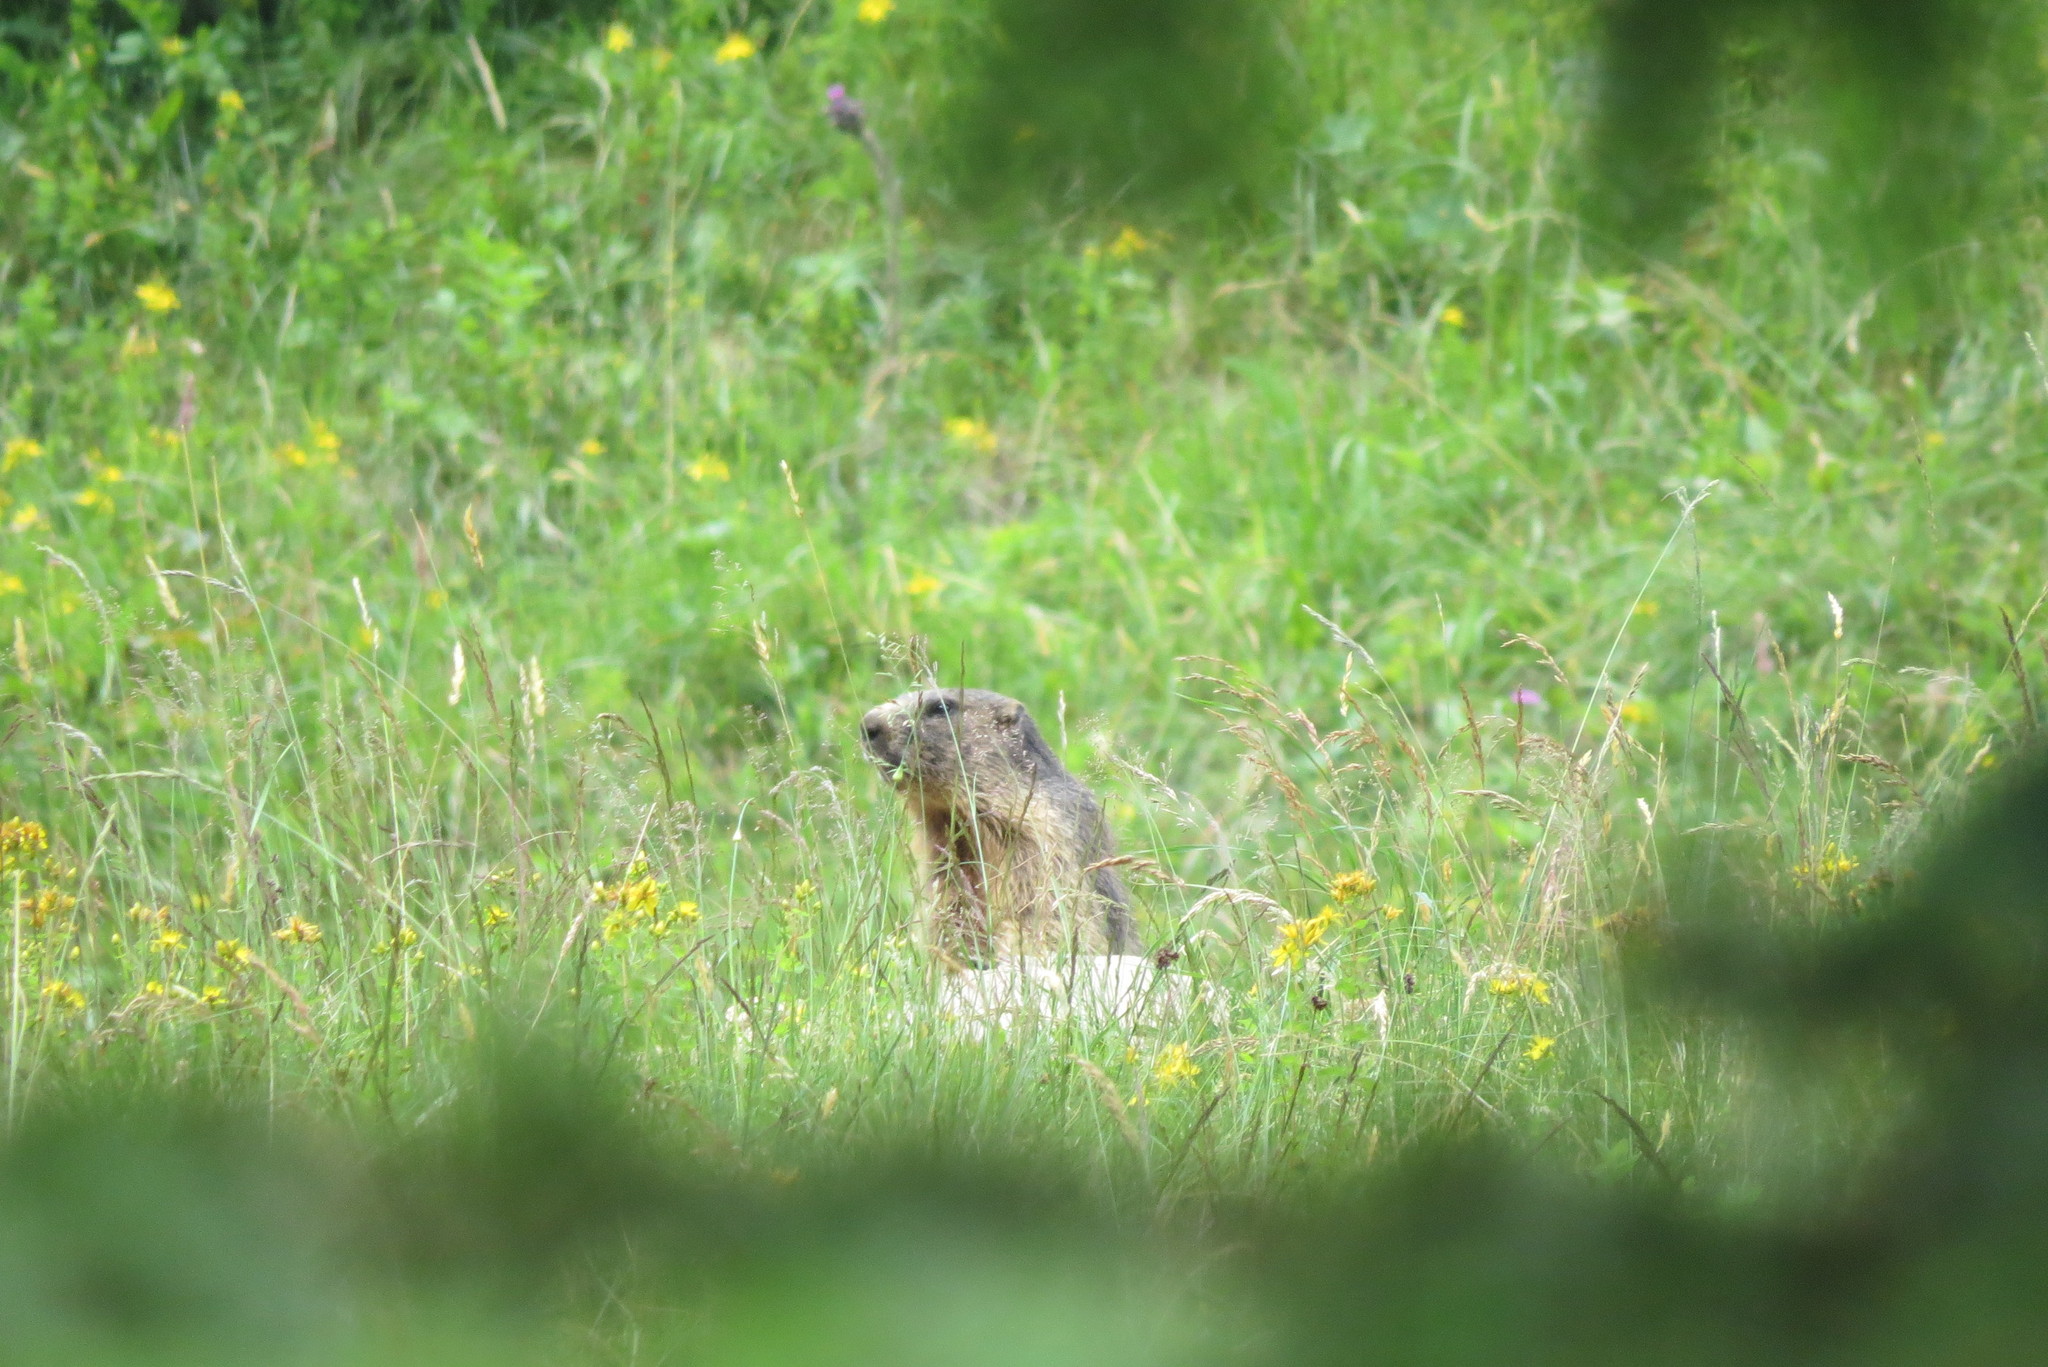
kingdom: Animalia
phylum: Chordata
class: Mammalia
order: Rodentia
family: Sciuridae
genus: Marmota
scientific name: Marmota marmota
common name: Alpine marmot
